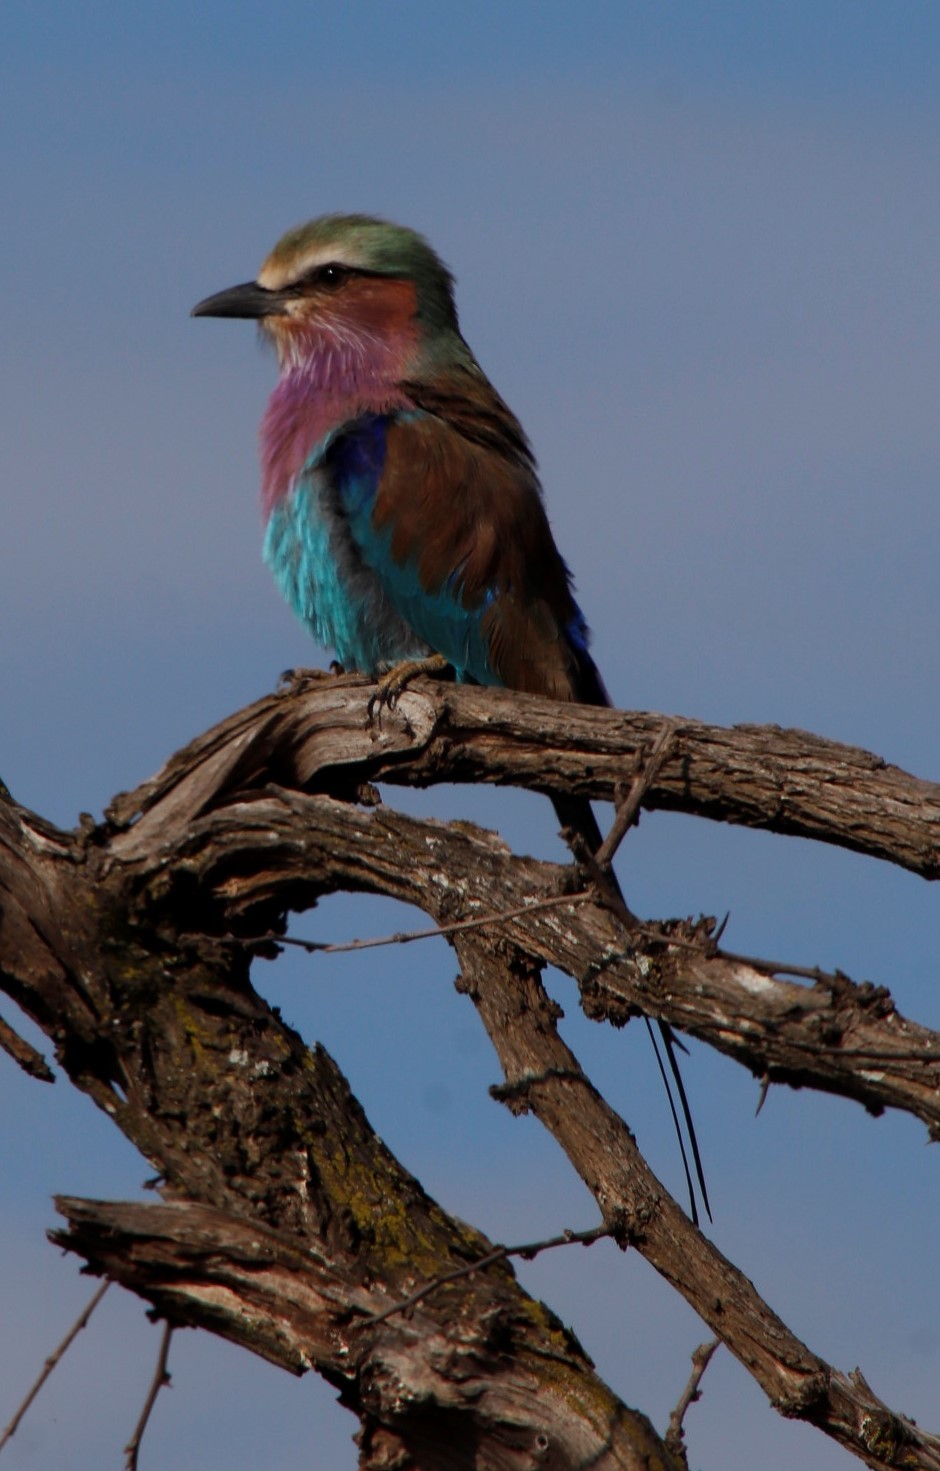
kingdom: Animalia
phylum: Chordata
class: Aves
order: Coraciiformes
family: Coraciidae
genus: Coracias
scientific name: Coracias caudatus
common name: Lilac-breasted roller
